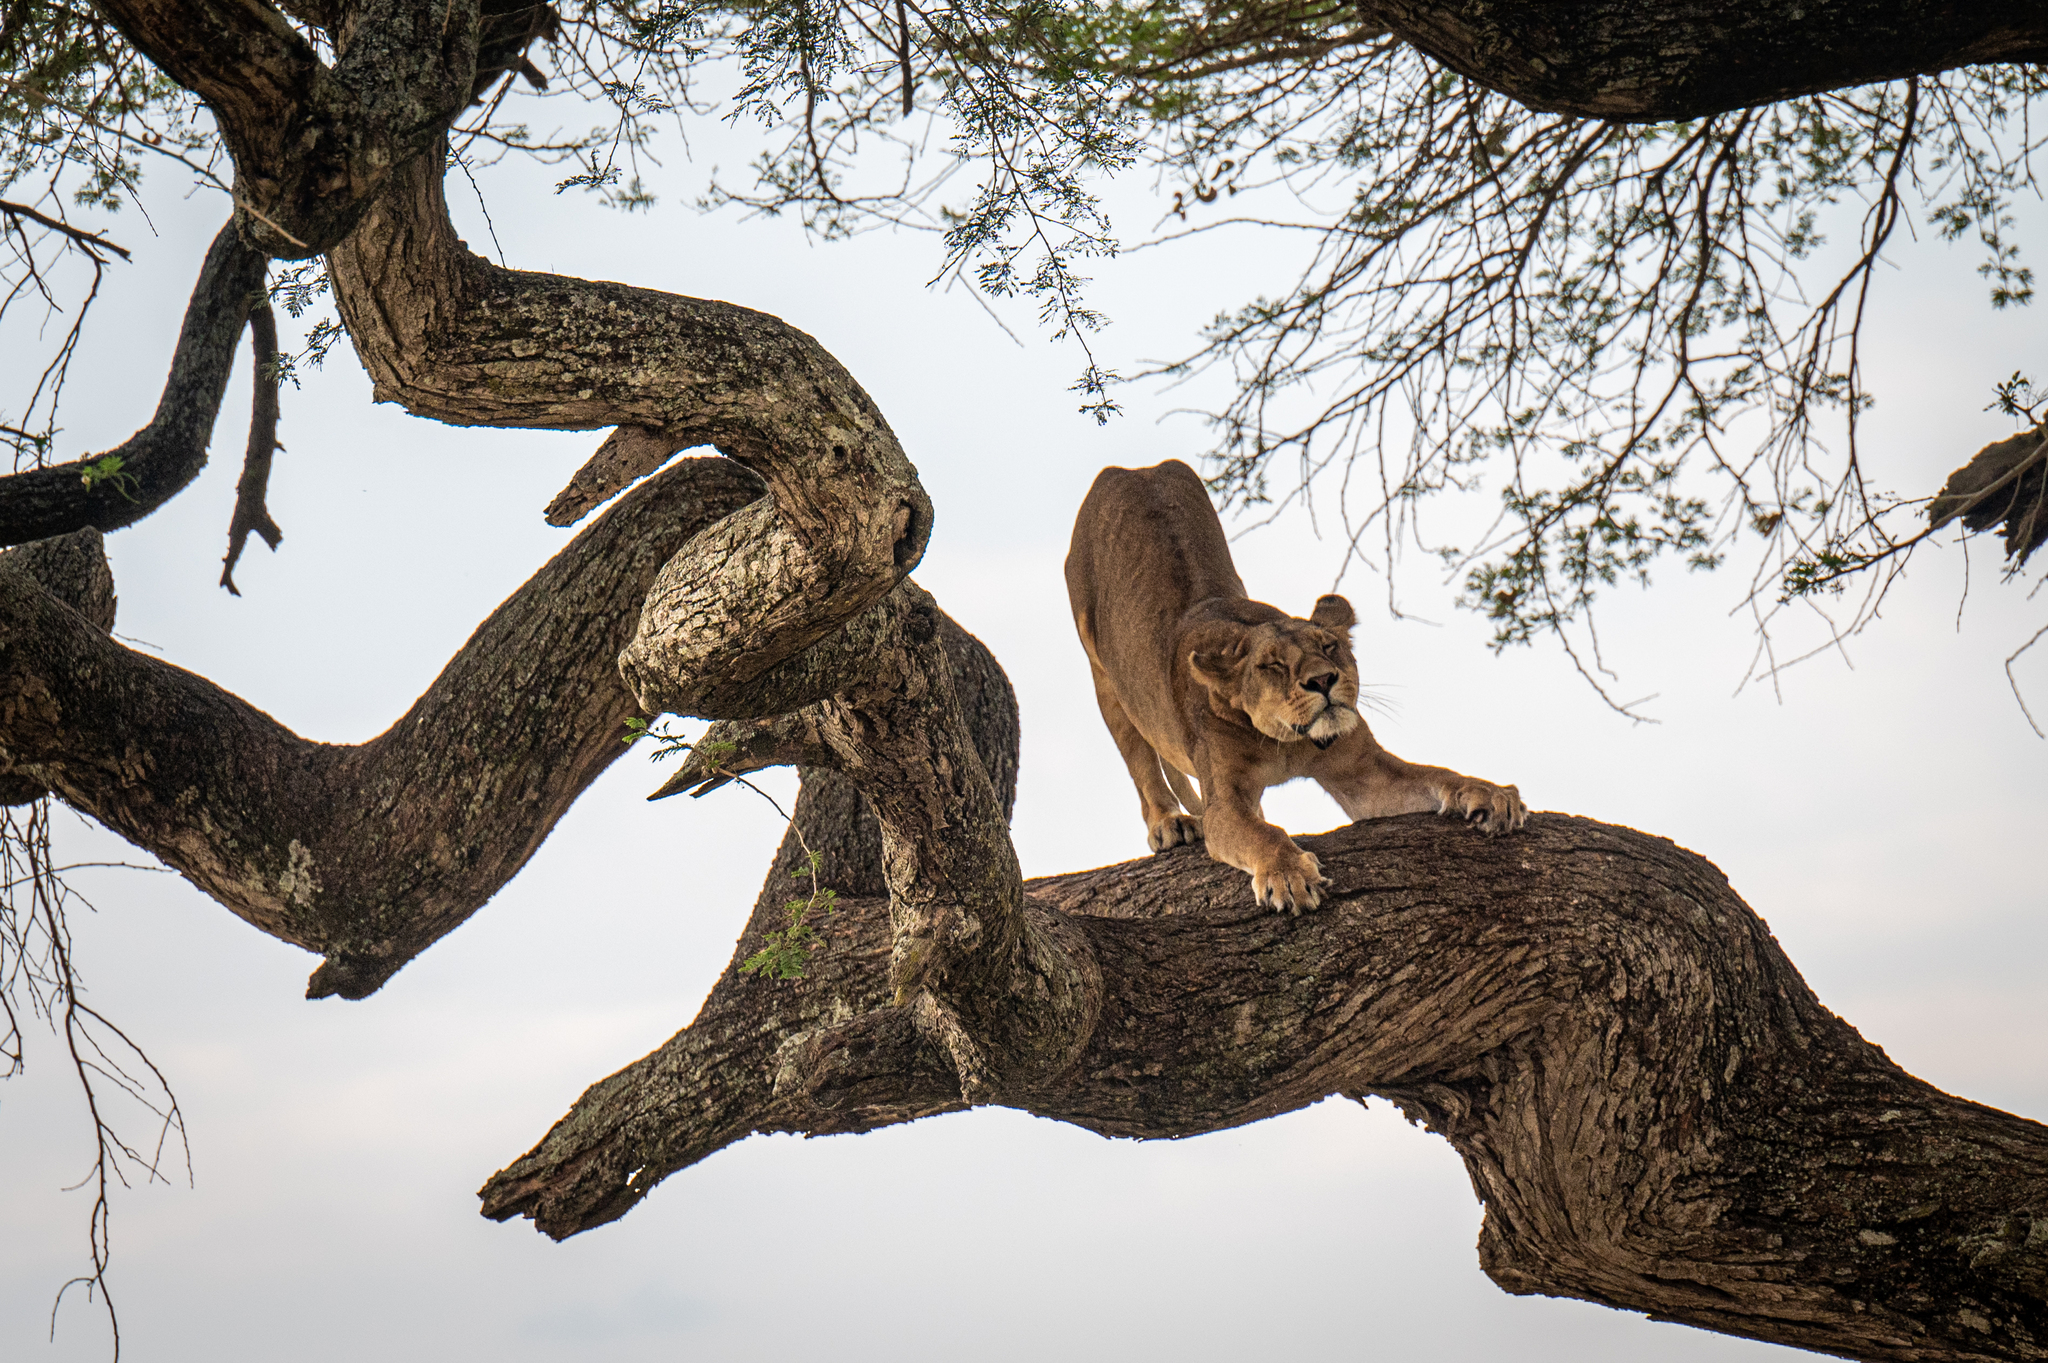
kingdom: Animalia
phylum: Chordata
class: Mammalia
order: Carnivora
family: Felidae
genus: Panthera
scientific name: Panthera leo
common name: Lion
